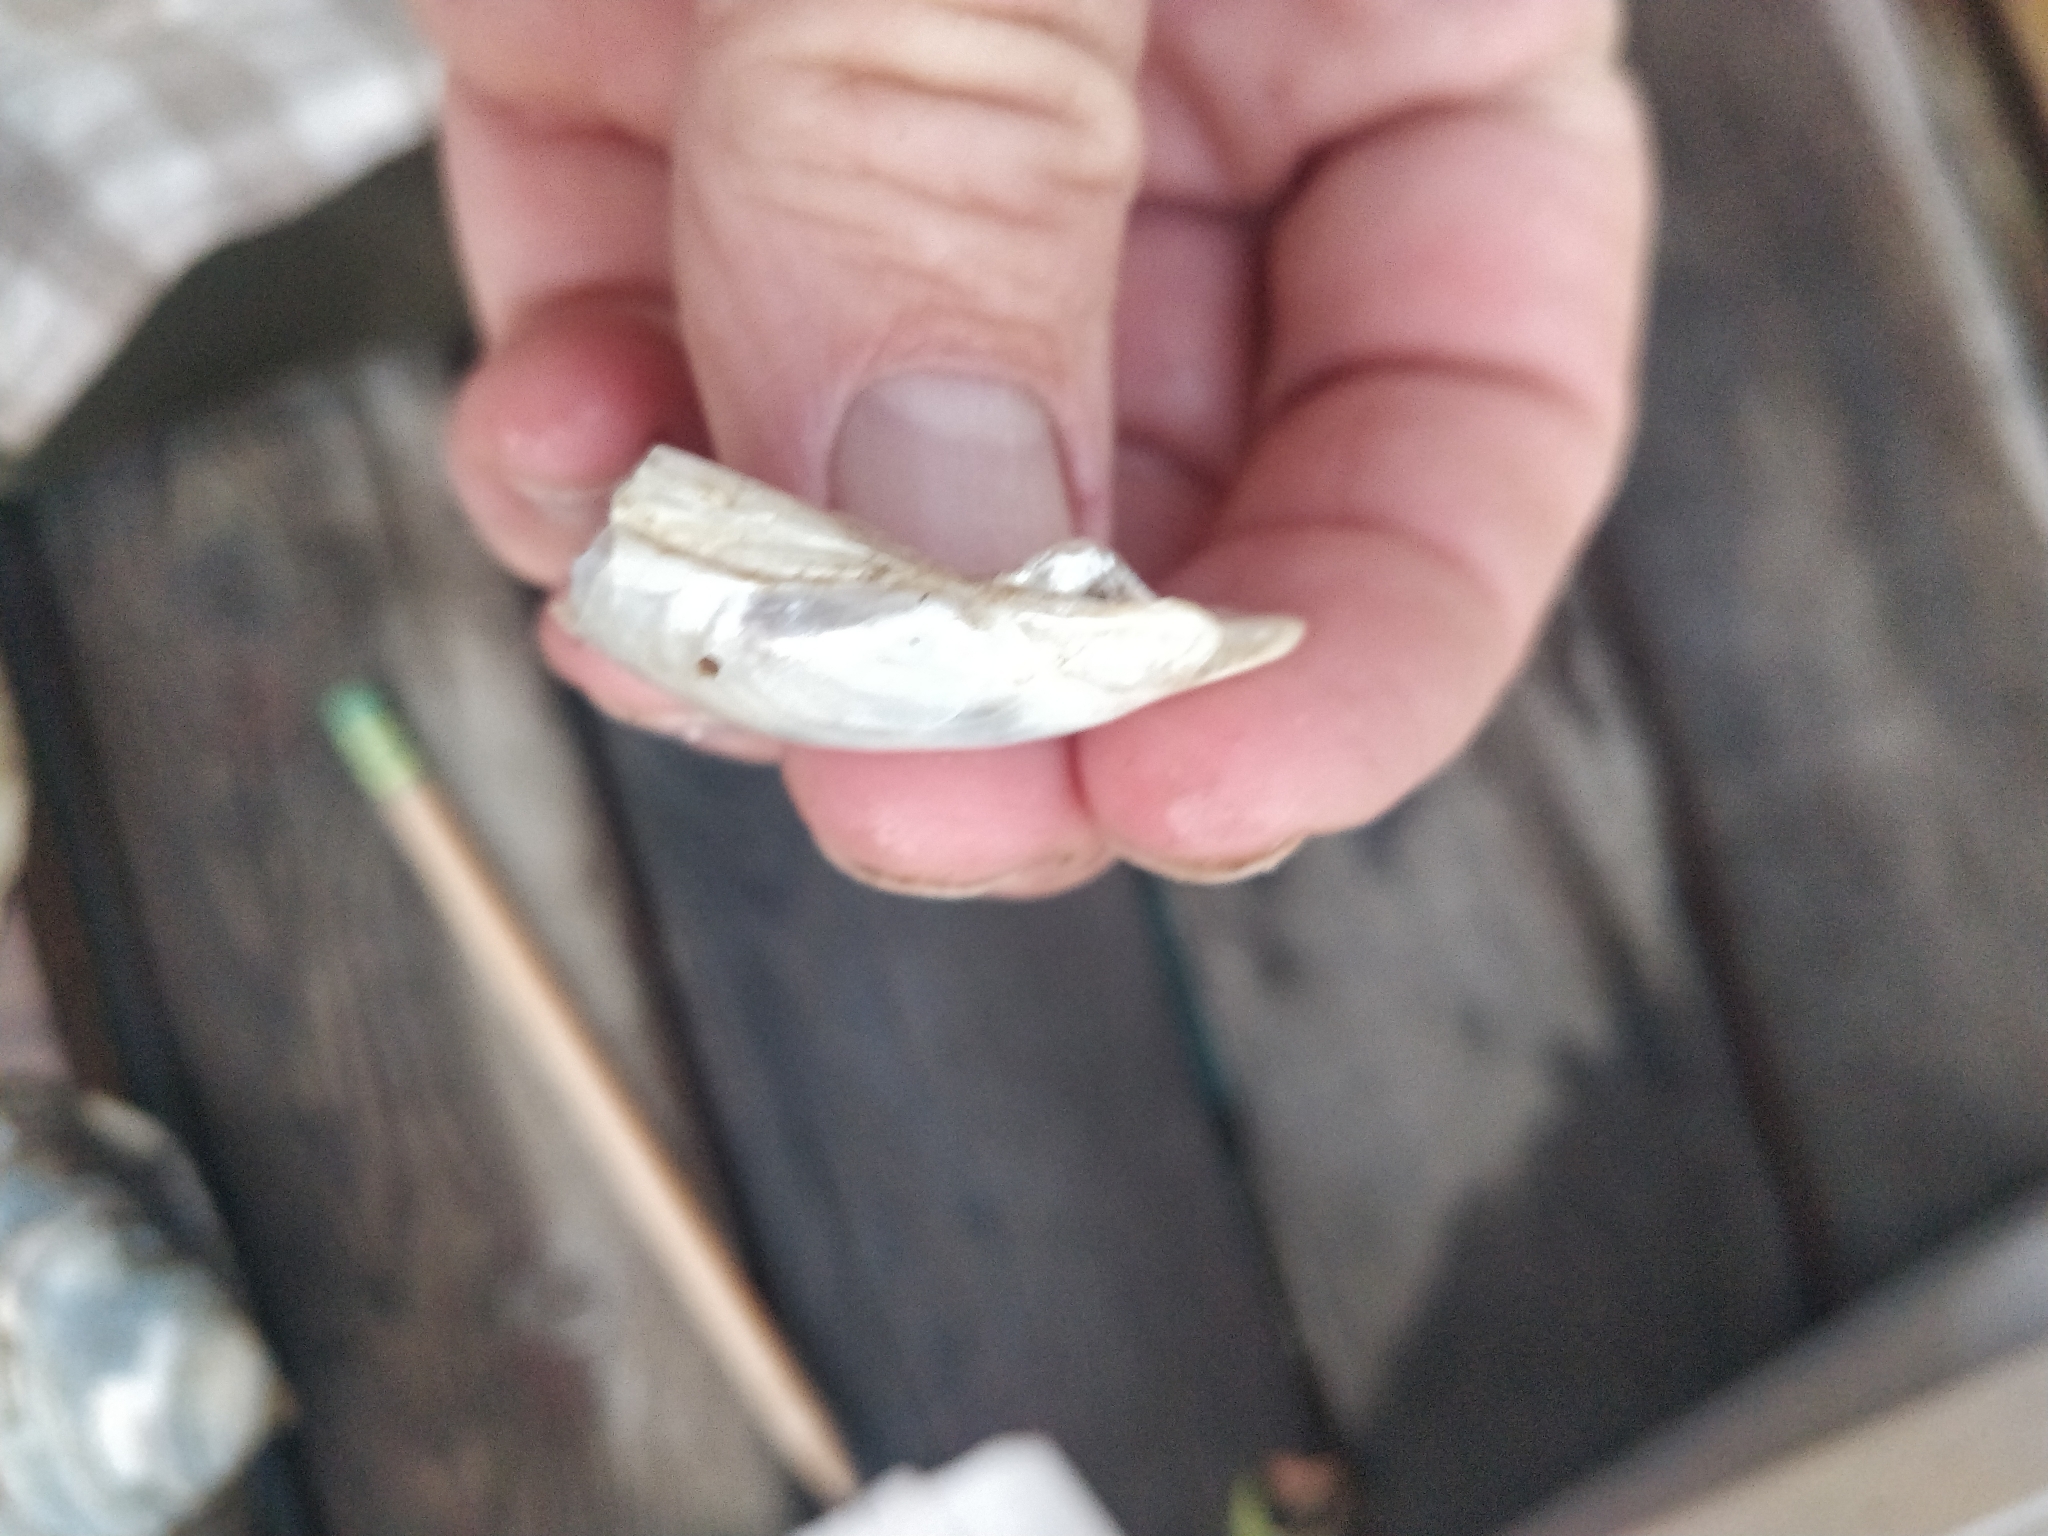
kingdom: Animalia
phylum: Mollusca
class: Bivalvia
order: Unionida
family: Unionidae
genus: Lampsilis
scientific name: Lampsilis cardium
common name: Plain pocketbook
